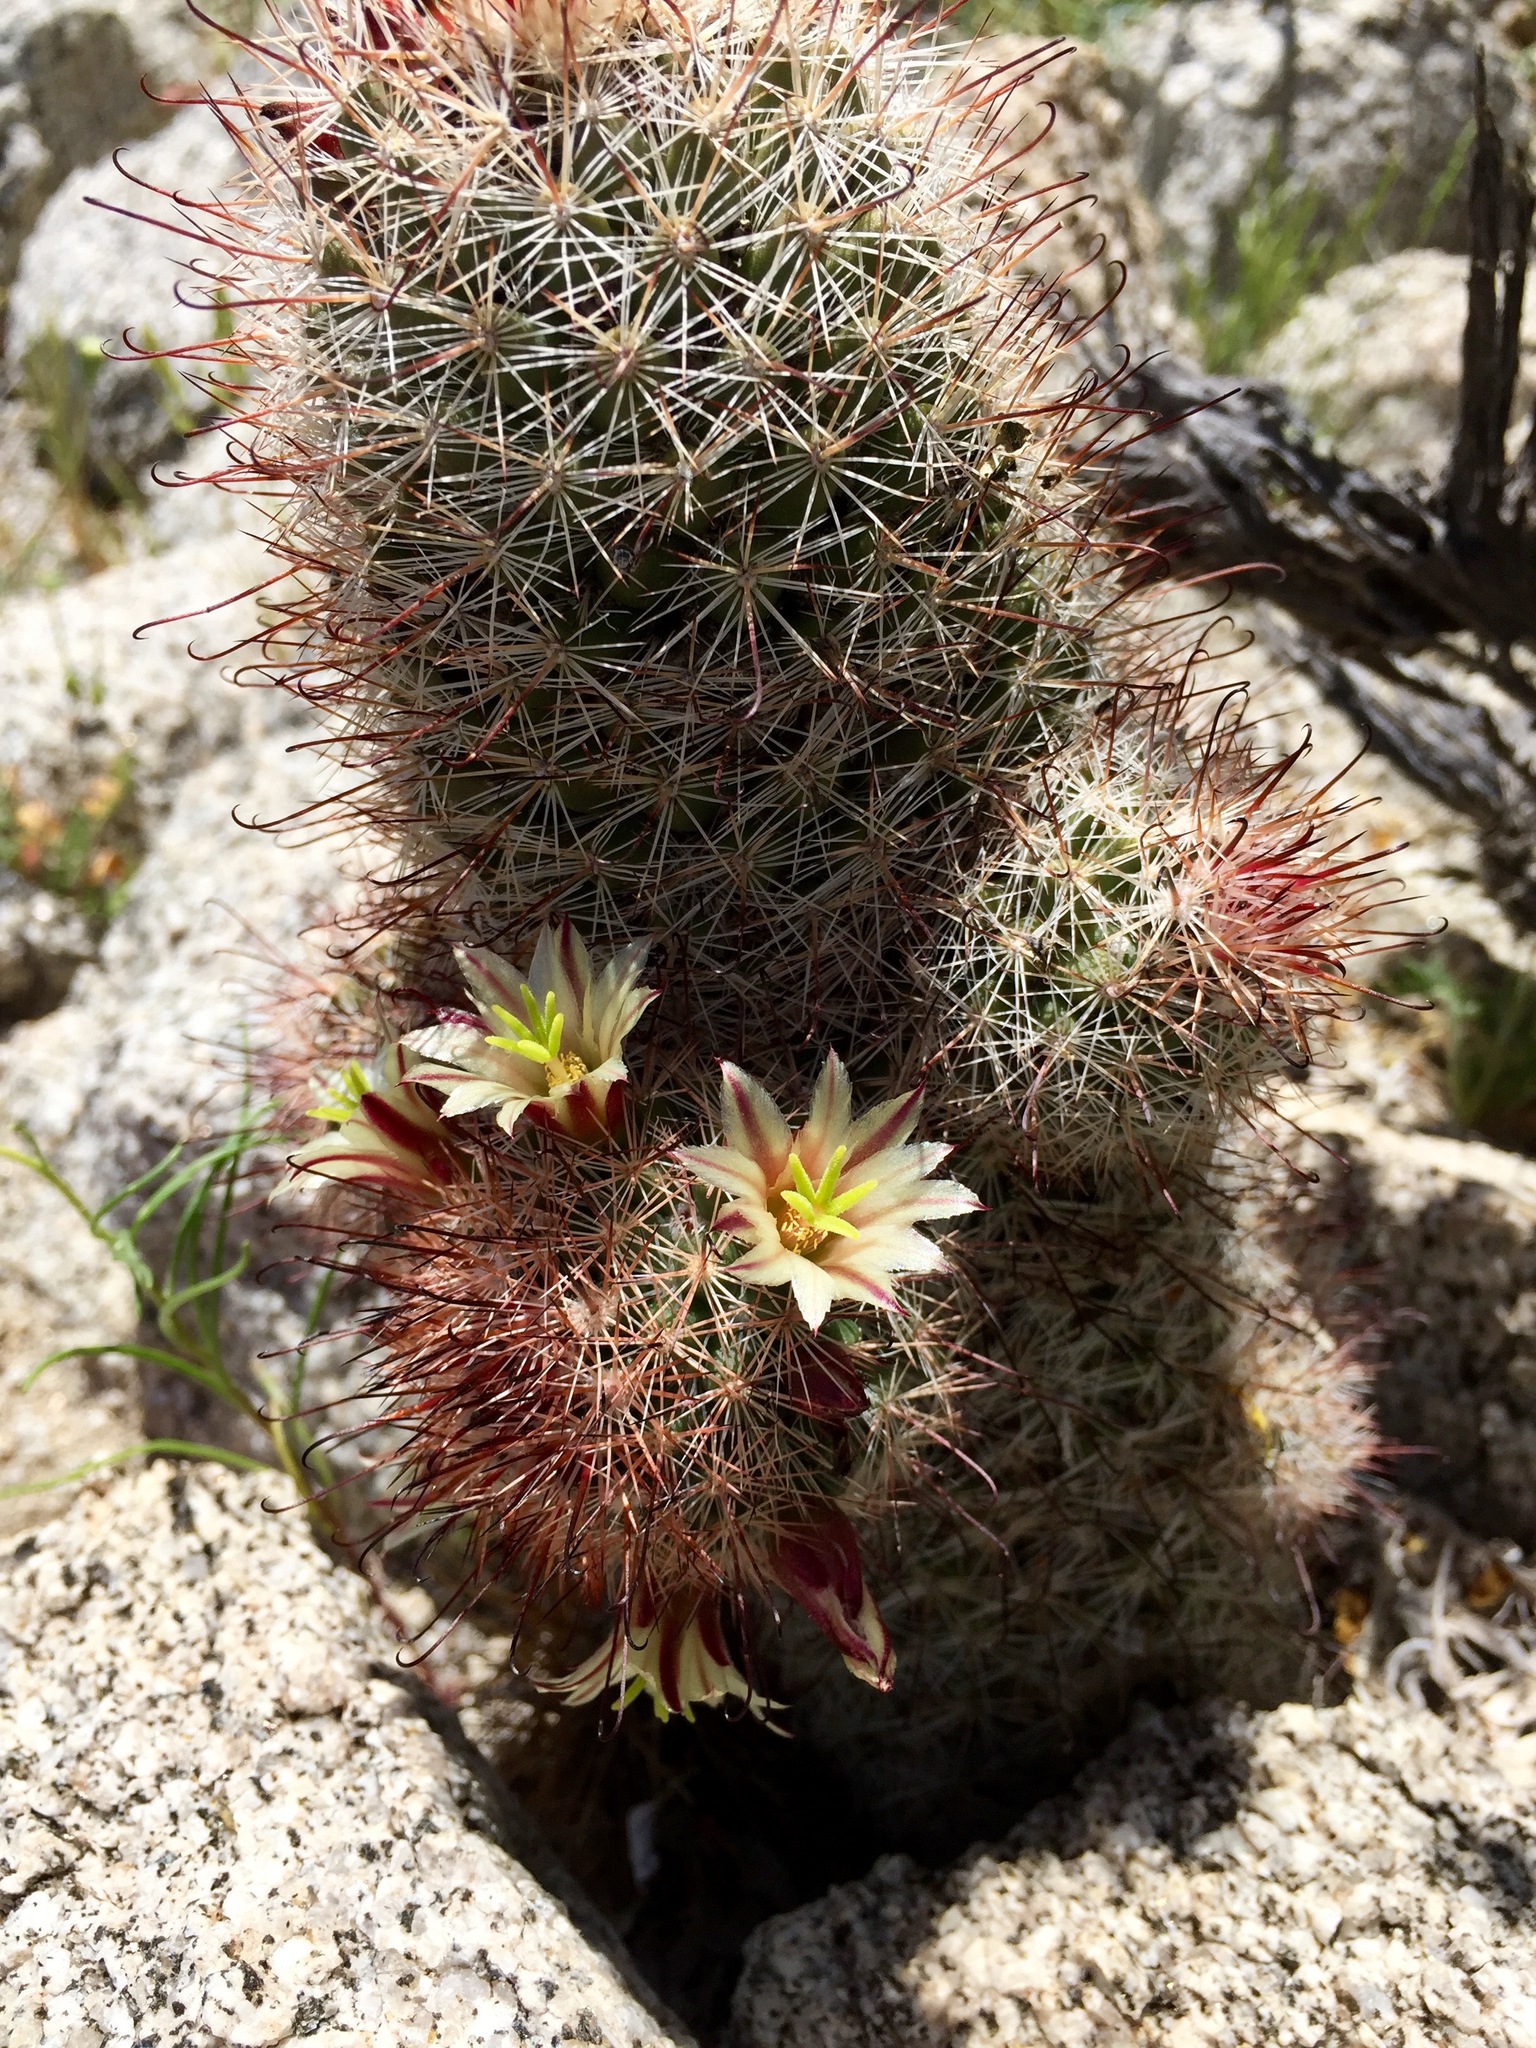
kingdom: Plantae
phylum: Tracheophyta
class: Magnoliopsida
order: Caryophyllales
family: Cactaceae
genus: Cochemiea
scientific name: Cochemiea dioica
